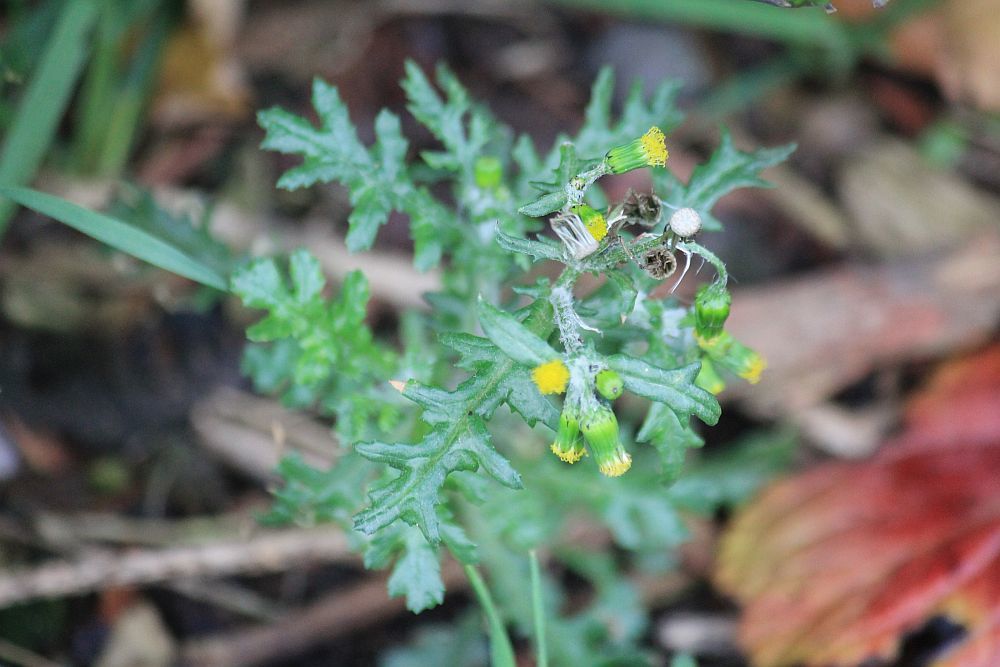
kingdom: Plantae
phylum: Tracheophyta
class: Magnoliopsida
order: Asterales
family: Asteraceae
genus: Senecio
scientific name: Senecio vulgaris
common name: Old-man-in-the-spring
